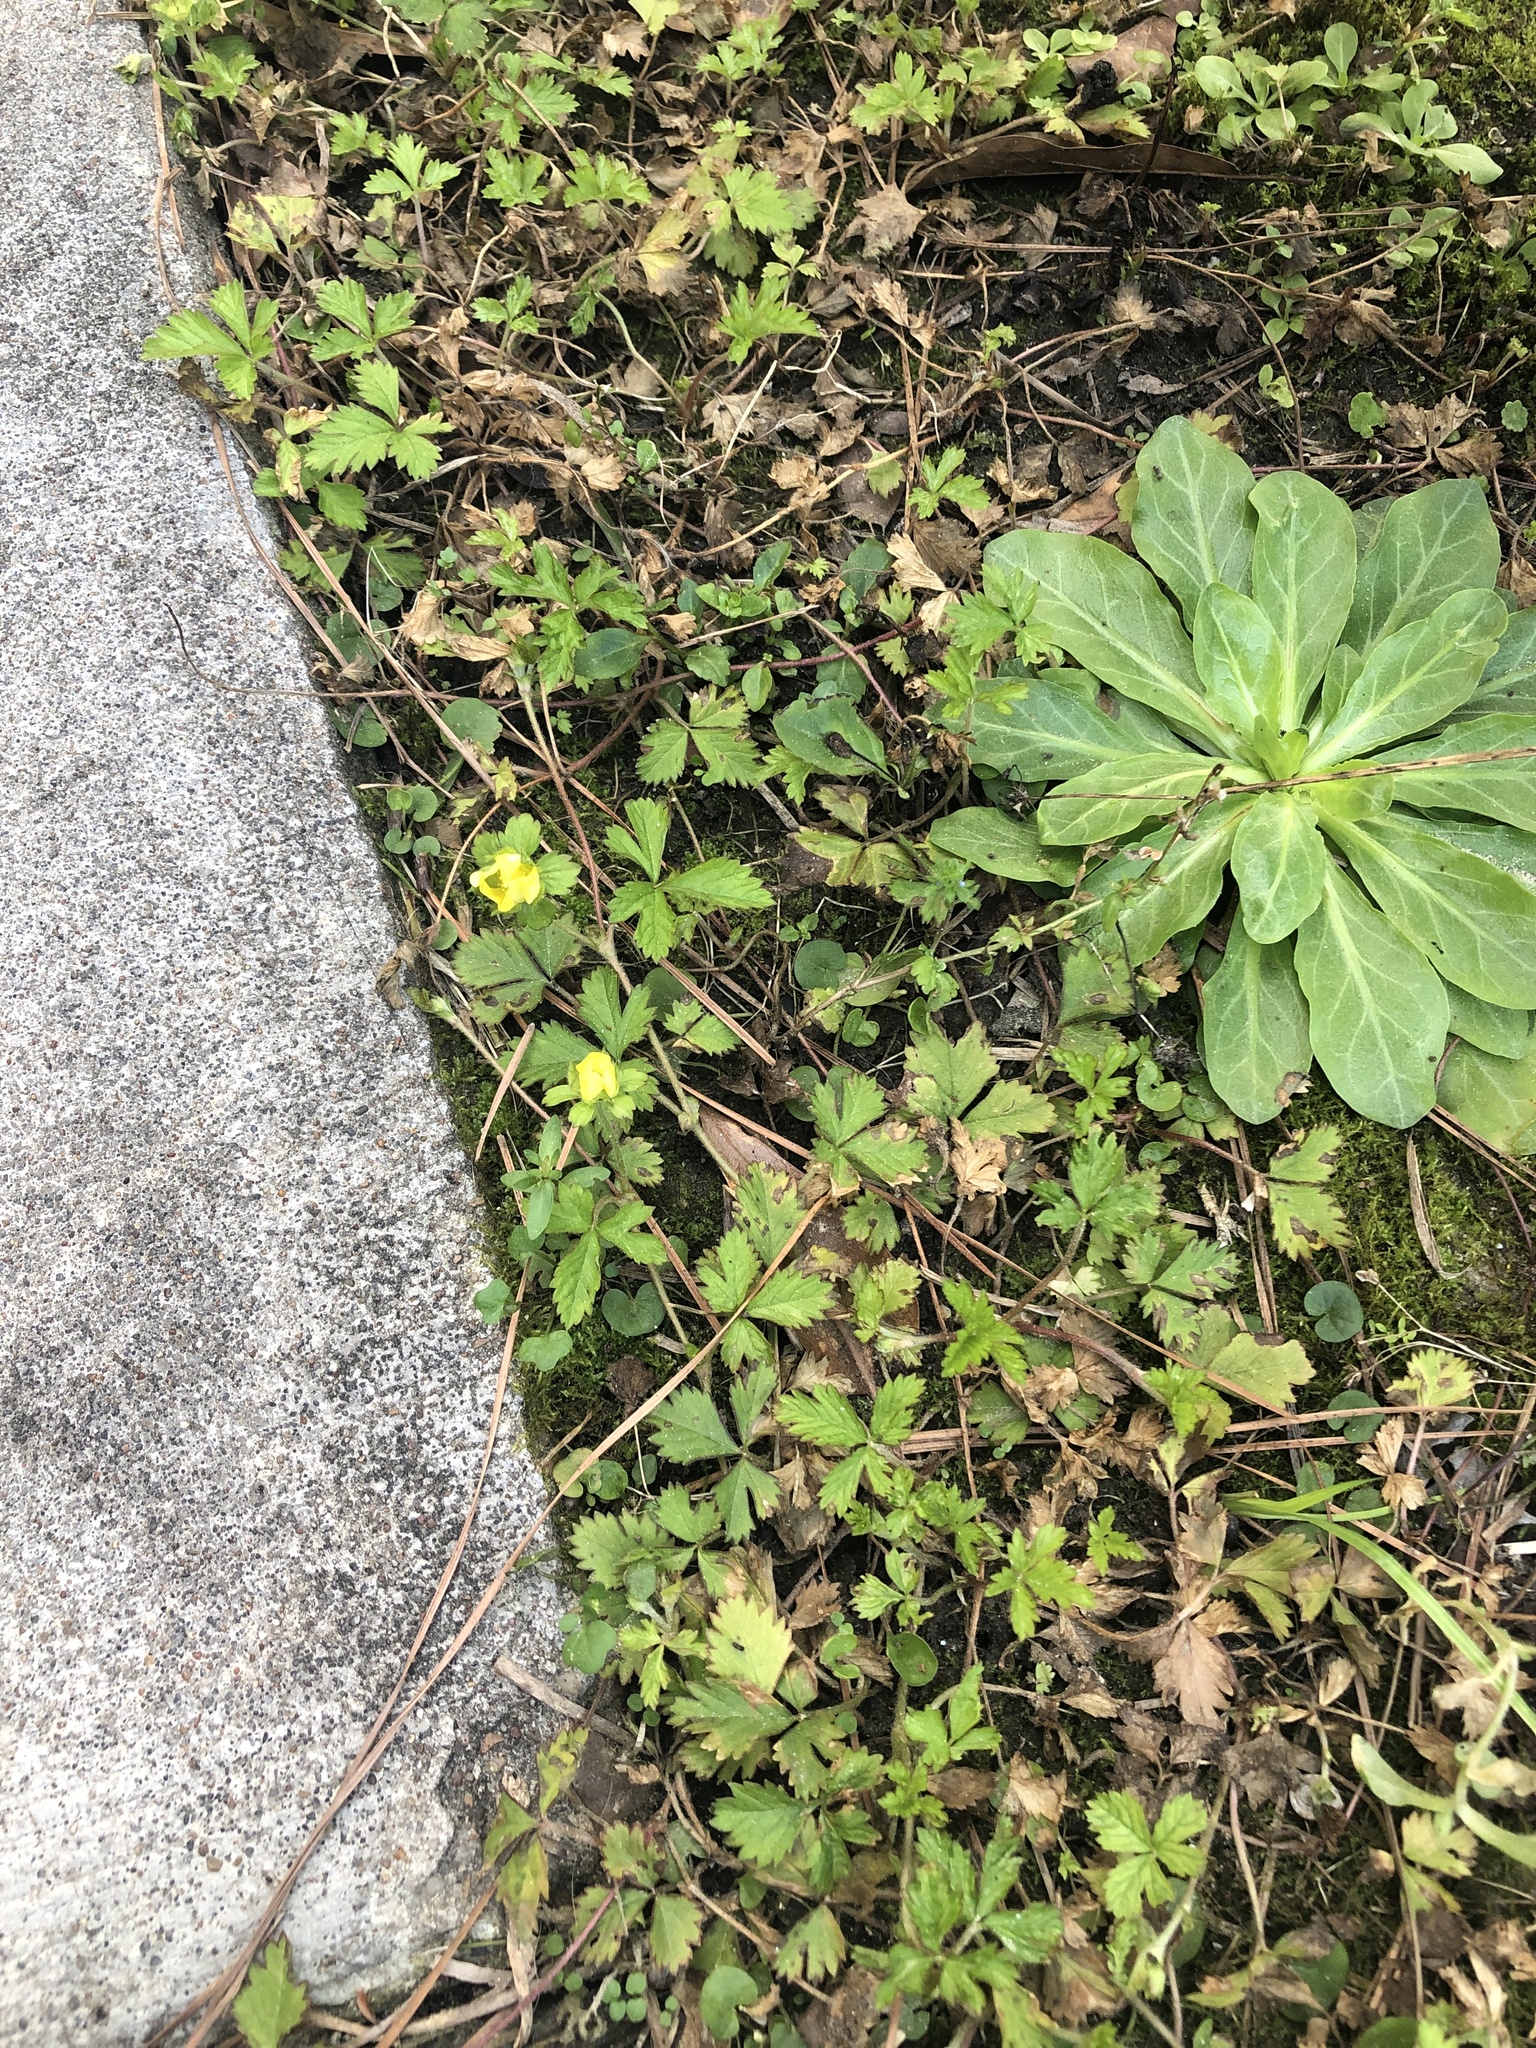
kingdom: Plantae
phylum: Tracheophyta
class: Magnoliopsida
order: Rosales
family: Rosaceae
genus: Potentilla
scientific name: Potentilla indica
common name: Yellow-flowered strawberry
